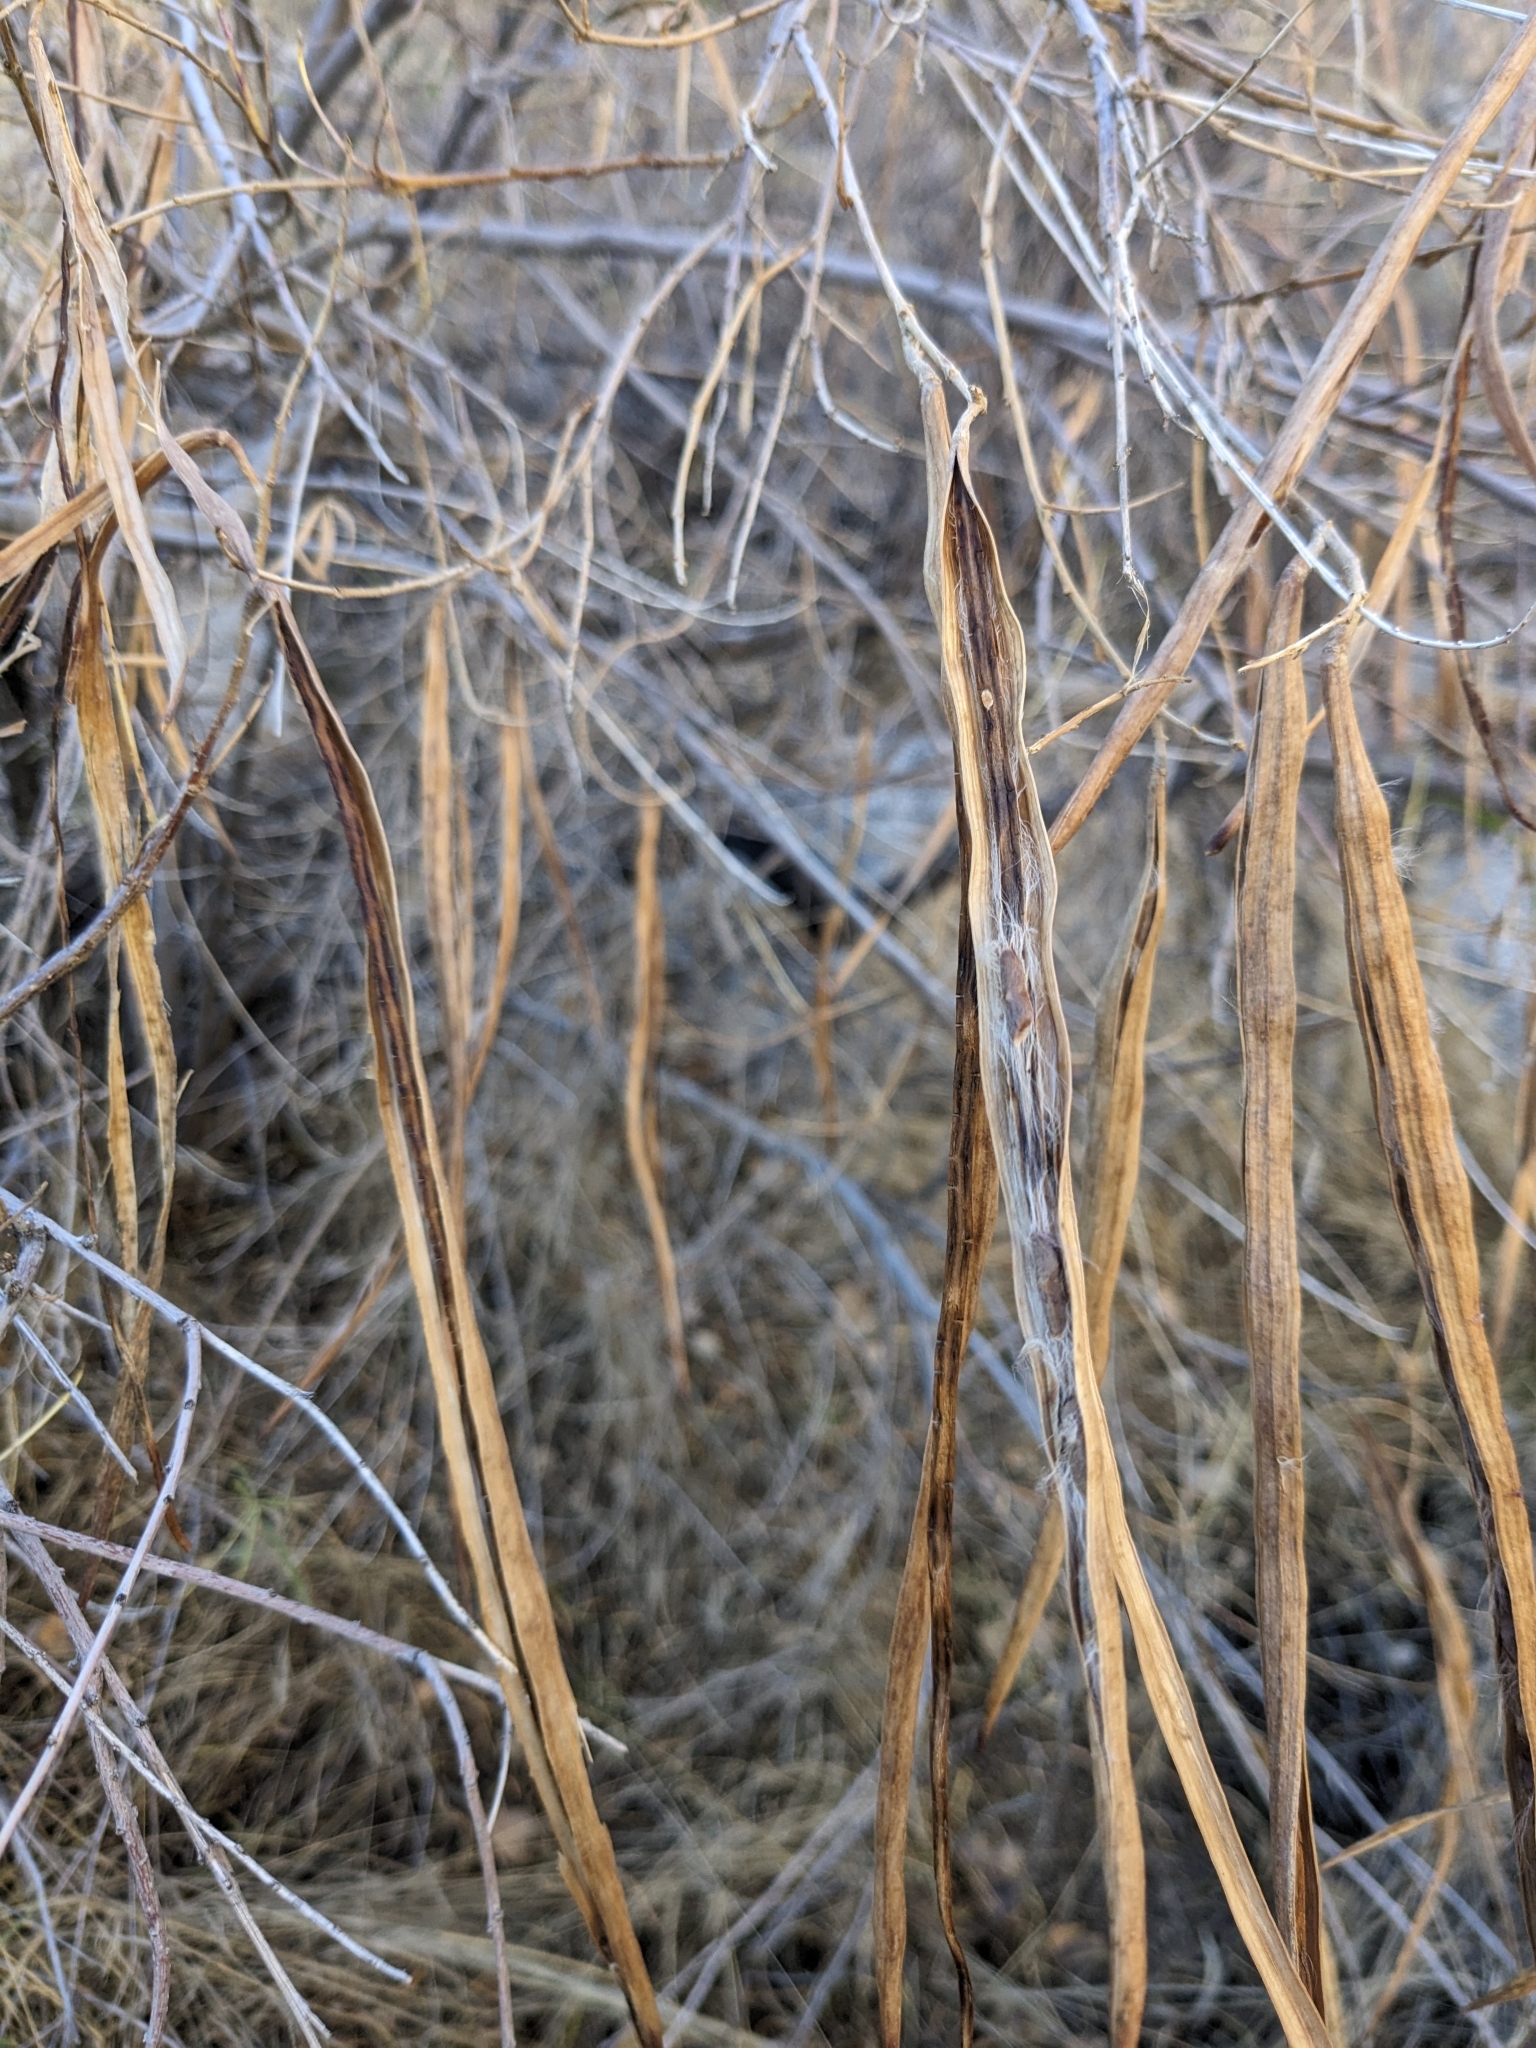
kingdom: Plantae
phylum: Tracheophyta
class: Magnoliopsida
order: Lamiales
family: Bignoniaceae
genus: Chilopsis
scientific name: Chilopsis linearis
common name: Desert-willow
